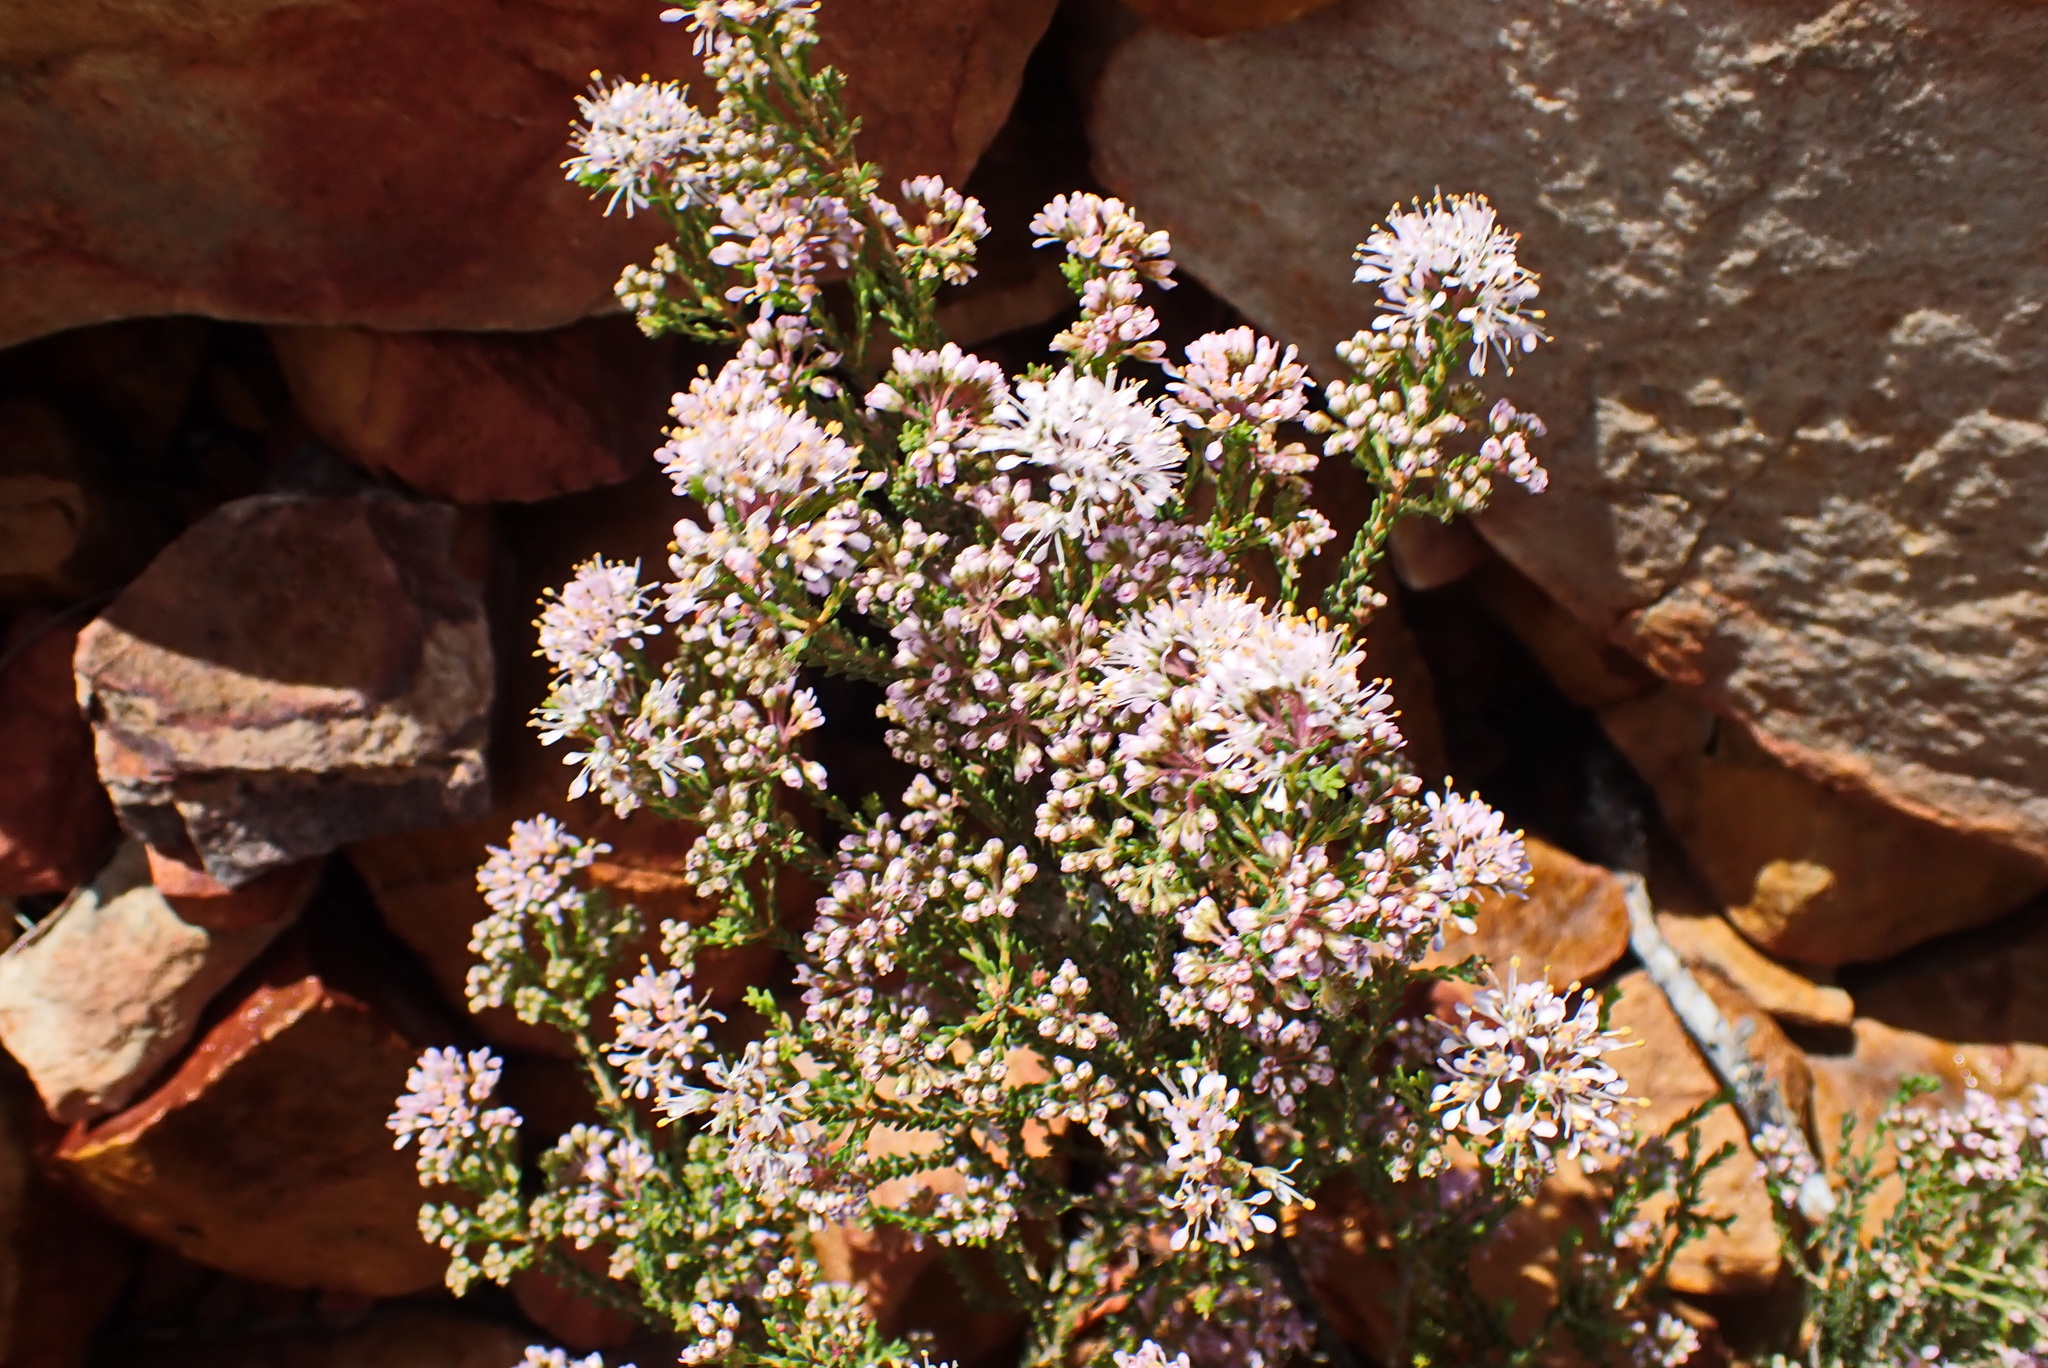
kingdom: Plantae
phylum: Tracheophyta
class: Magnoliopsida
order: Sapindales
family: Rutaceae
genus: Agathosma
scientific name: Agathosma capensis
